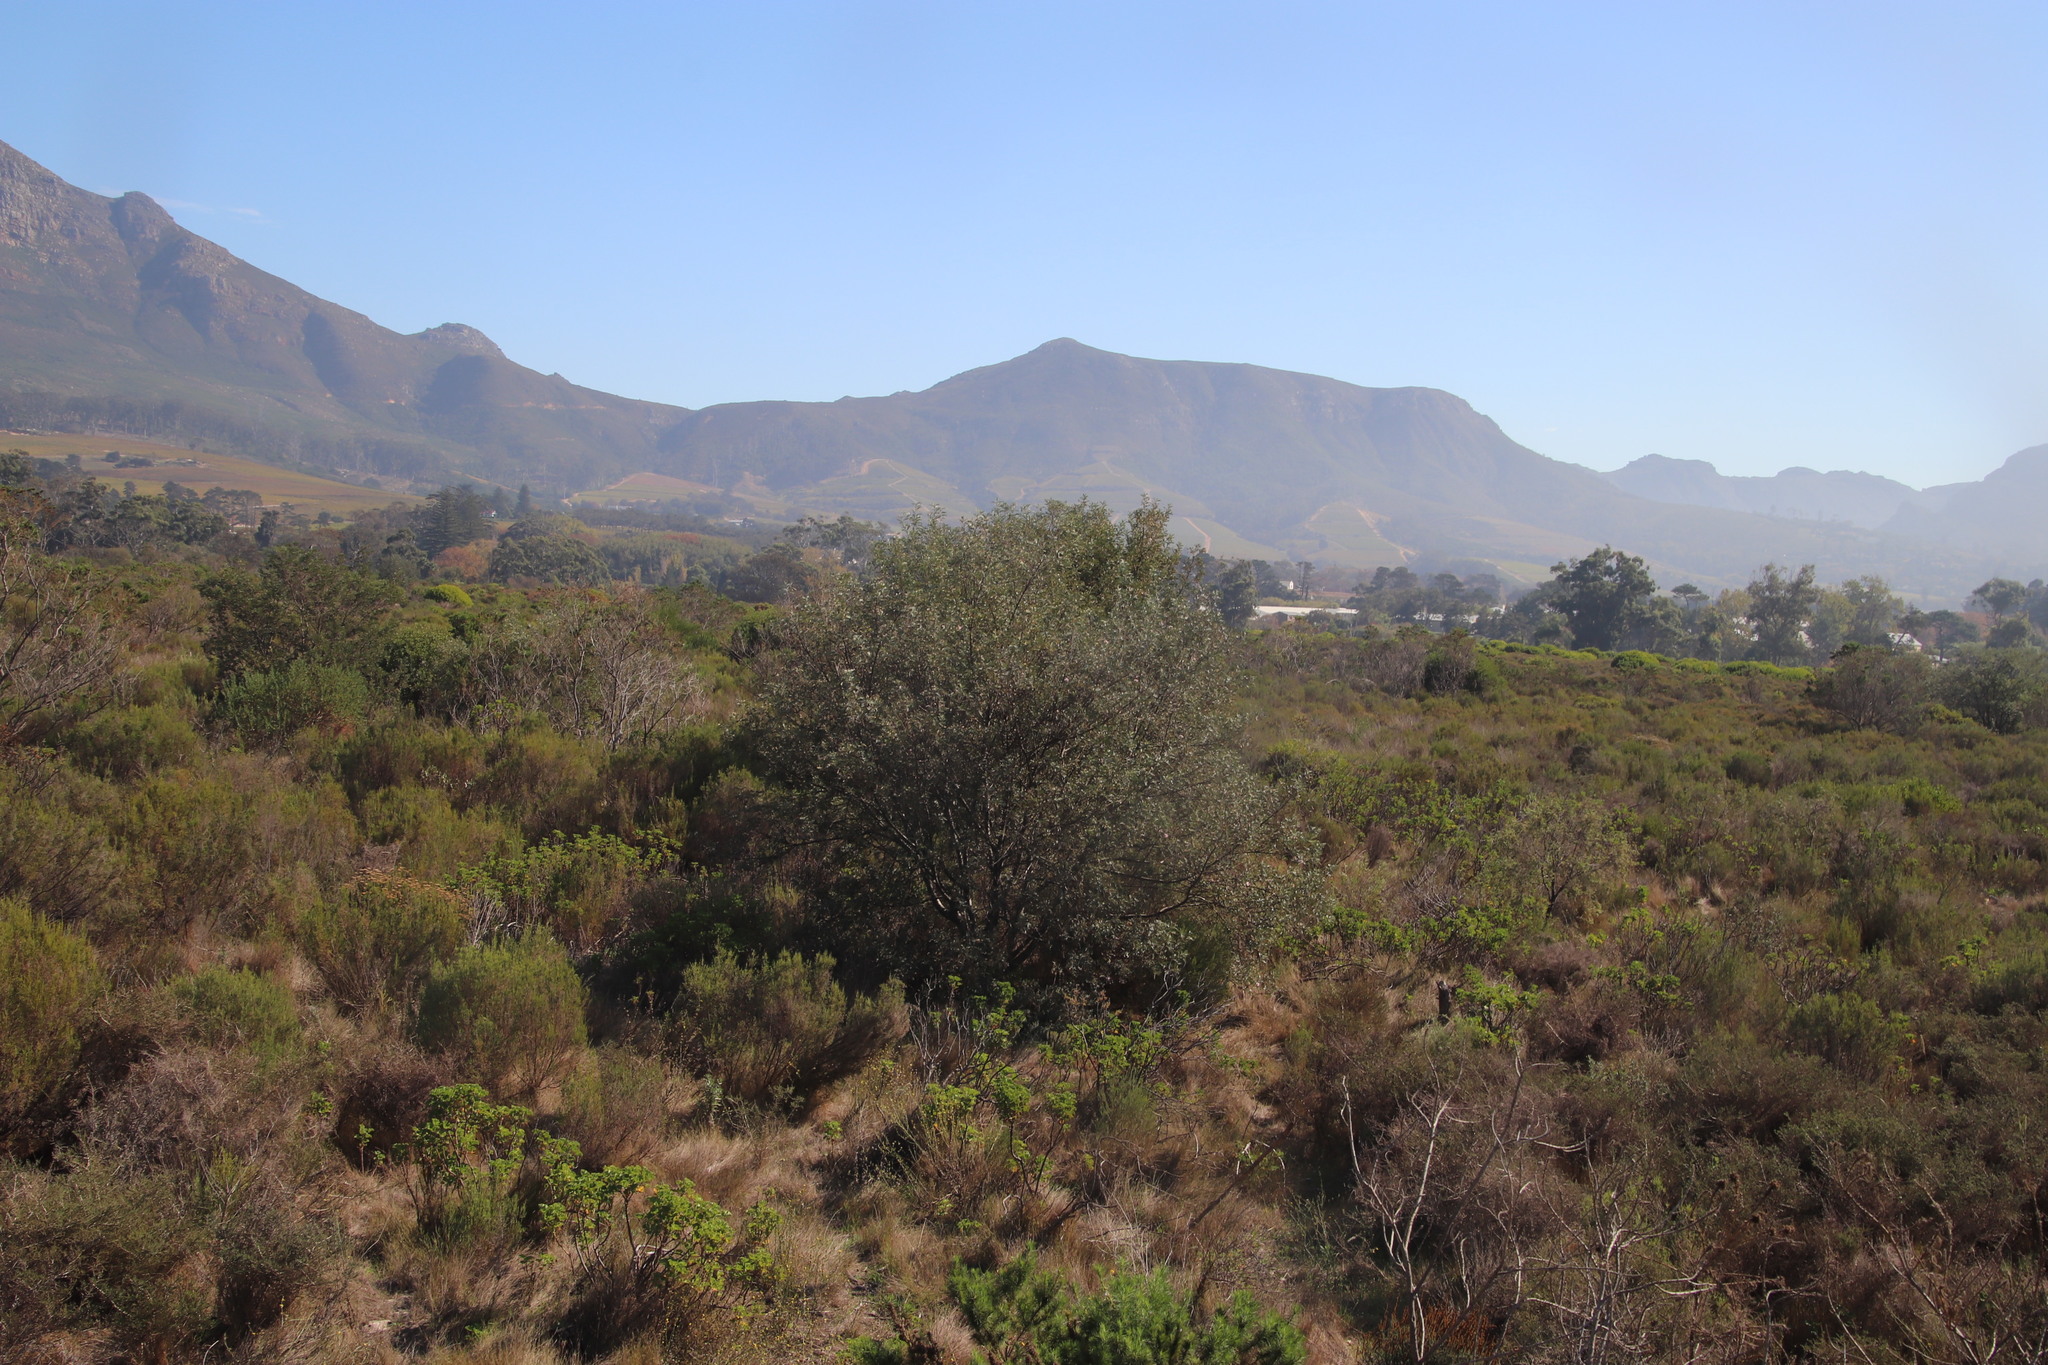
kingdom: Plantae
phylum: Tracheophyta
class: Magnoliopsida
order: Fabales
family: Fabaceae
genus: Virgilia
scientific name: Virgilia oroboides
